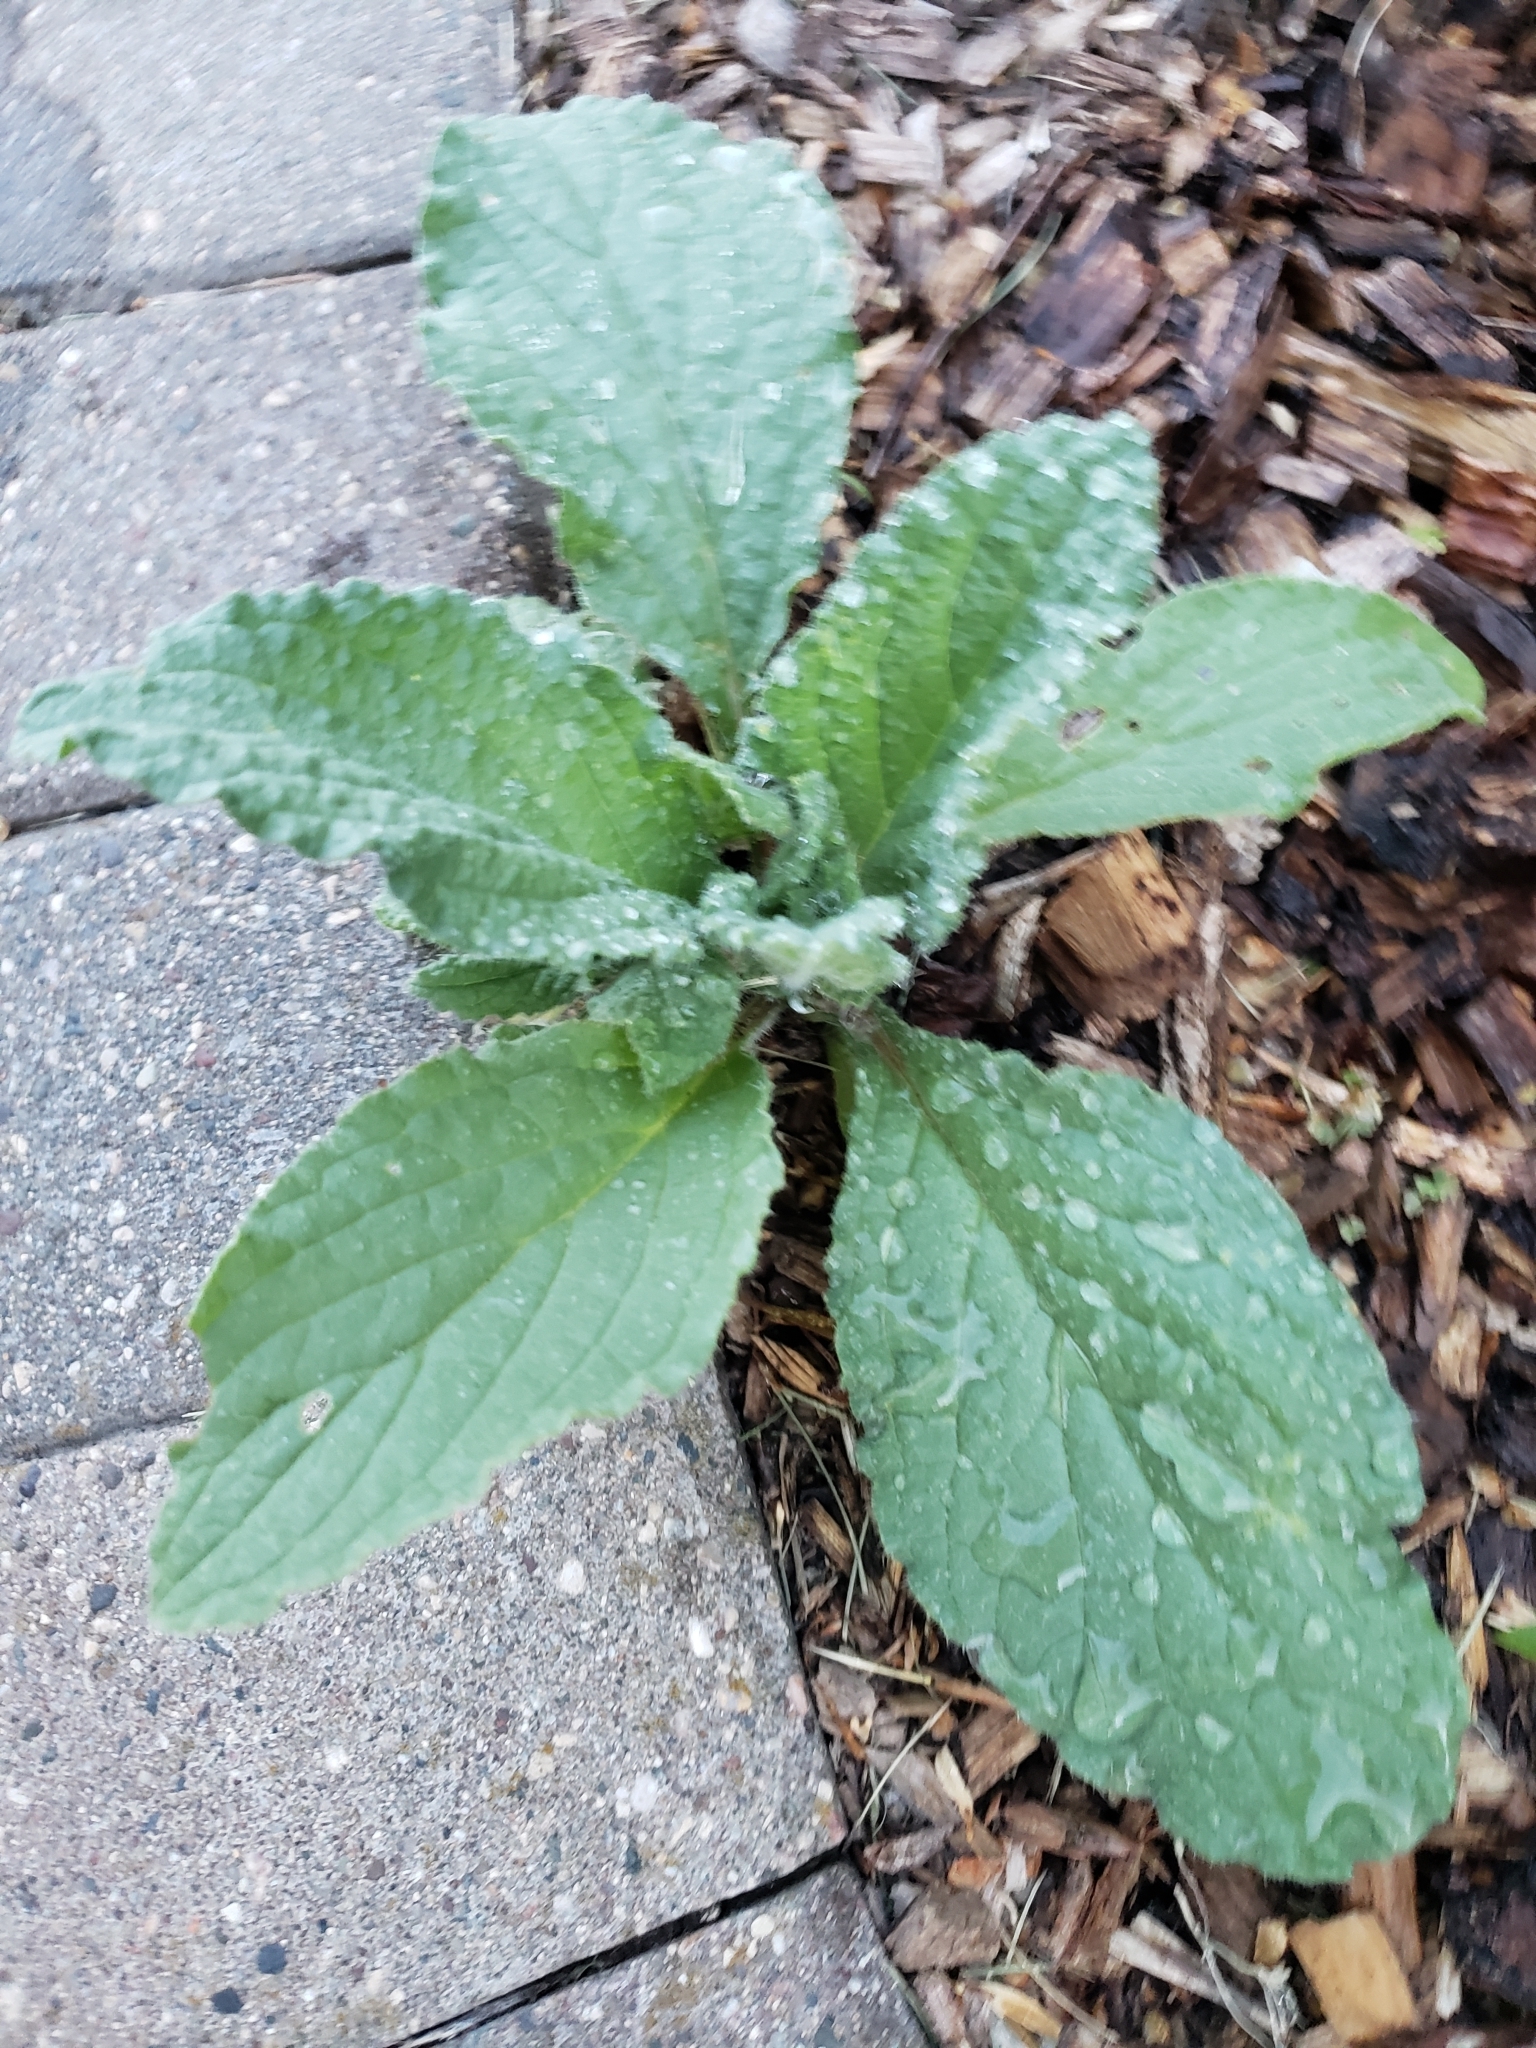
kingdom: Plantae
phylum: Tracheophyta
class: Magnoliopsida
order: Boraginales
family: Boraginaceae
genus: Borago
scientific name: Borago officinalis
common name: Borage
